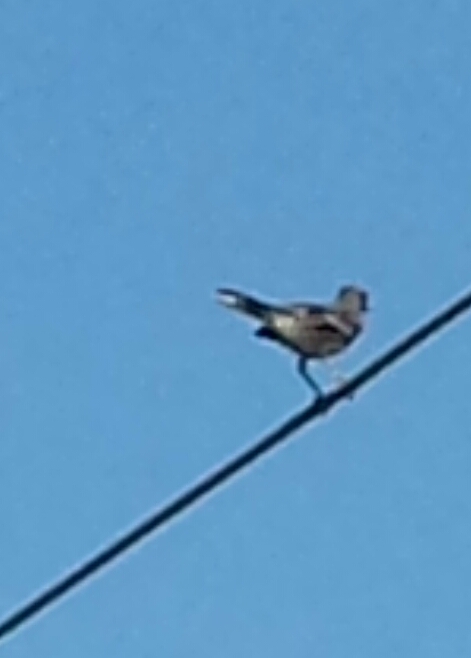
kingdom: Animalia
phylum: Chordata
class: Aves
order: Passeriformes
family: Mimidae
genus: Mimus
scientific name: Mimus polyglottos
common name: Northern mockingbird
